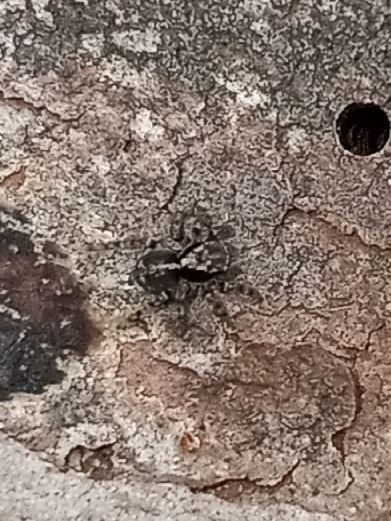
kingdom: Animalia
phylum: Arthropoda
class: Arachnida
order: Araneae
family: Salticidae
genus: Naphrys
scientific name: Naphrys pulex
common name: Flea jumping spider
